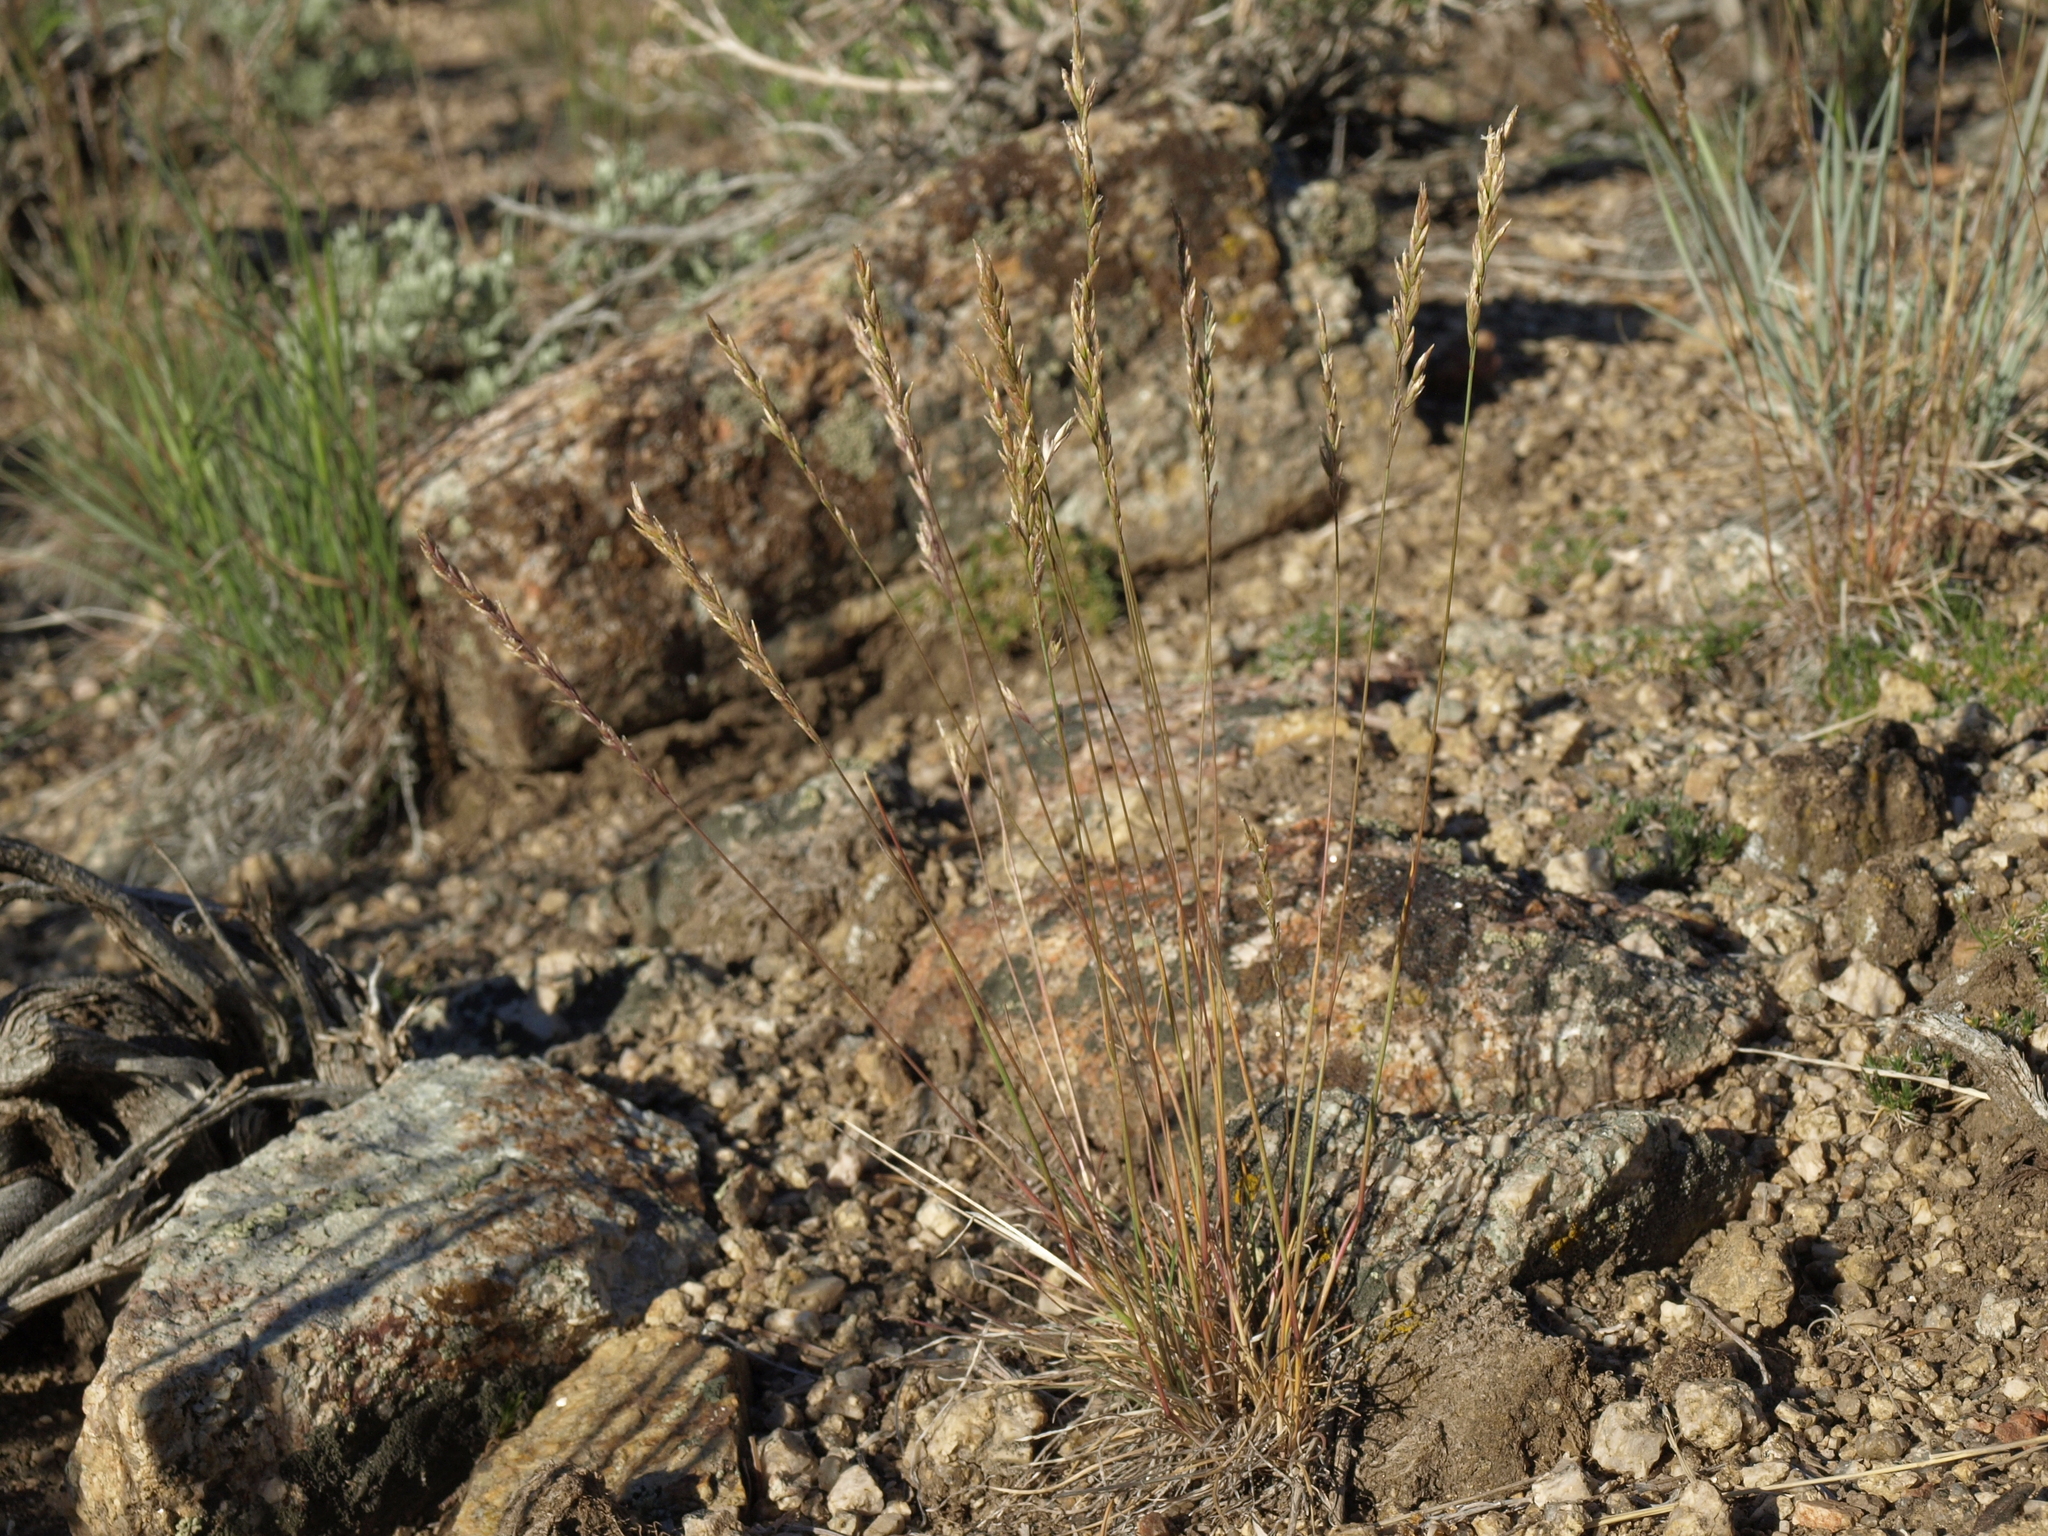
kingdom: Plantae
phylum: Tracheophyta
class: Liliopsida
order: Poales
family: Poaceae
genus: Poa
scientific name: Poa secunda
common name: Sandberg bluegrass
